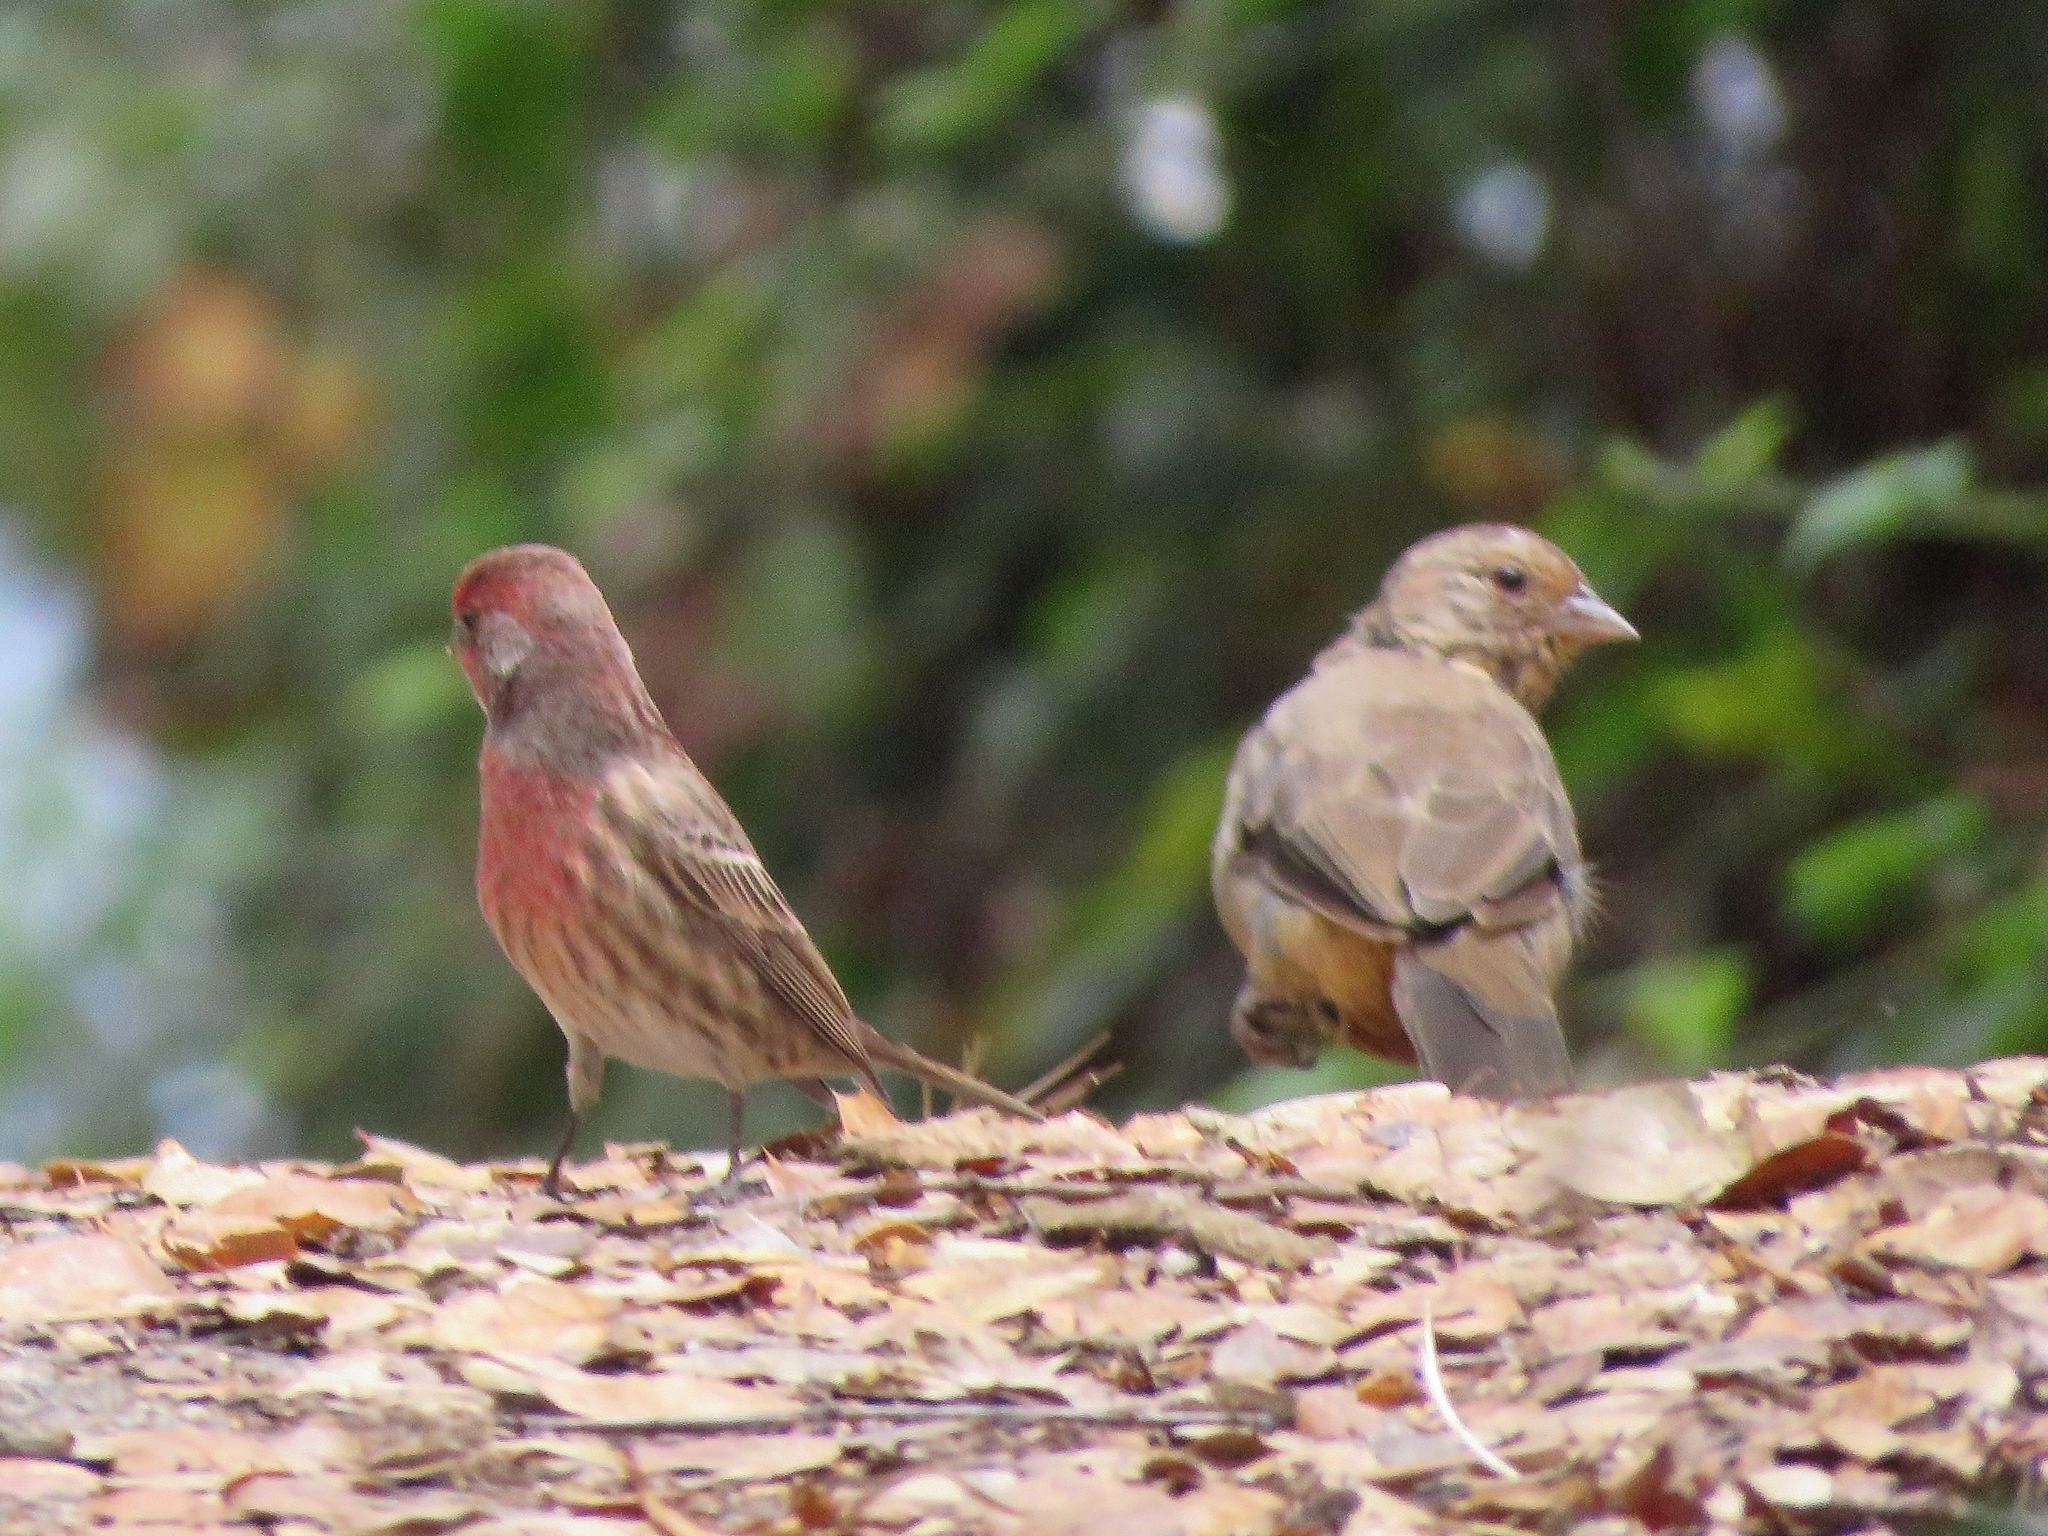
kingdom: Animalia
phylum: Chordata
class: Aves
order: Passeriformes
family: Fringillidae
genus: Haemorhous
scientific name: Haemorhous mexicanus
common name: House finch
